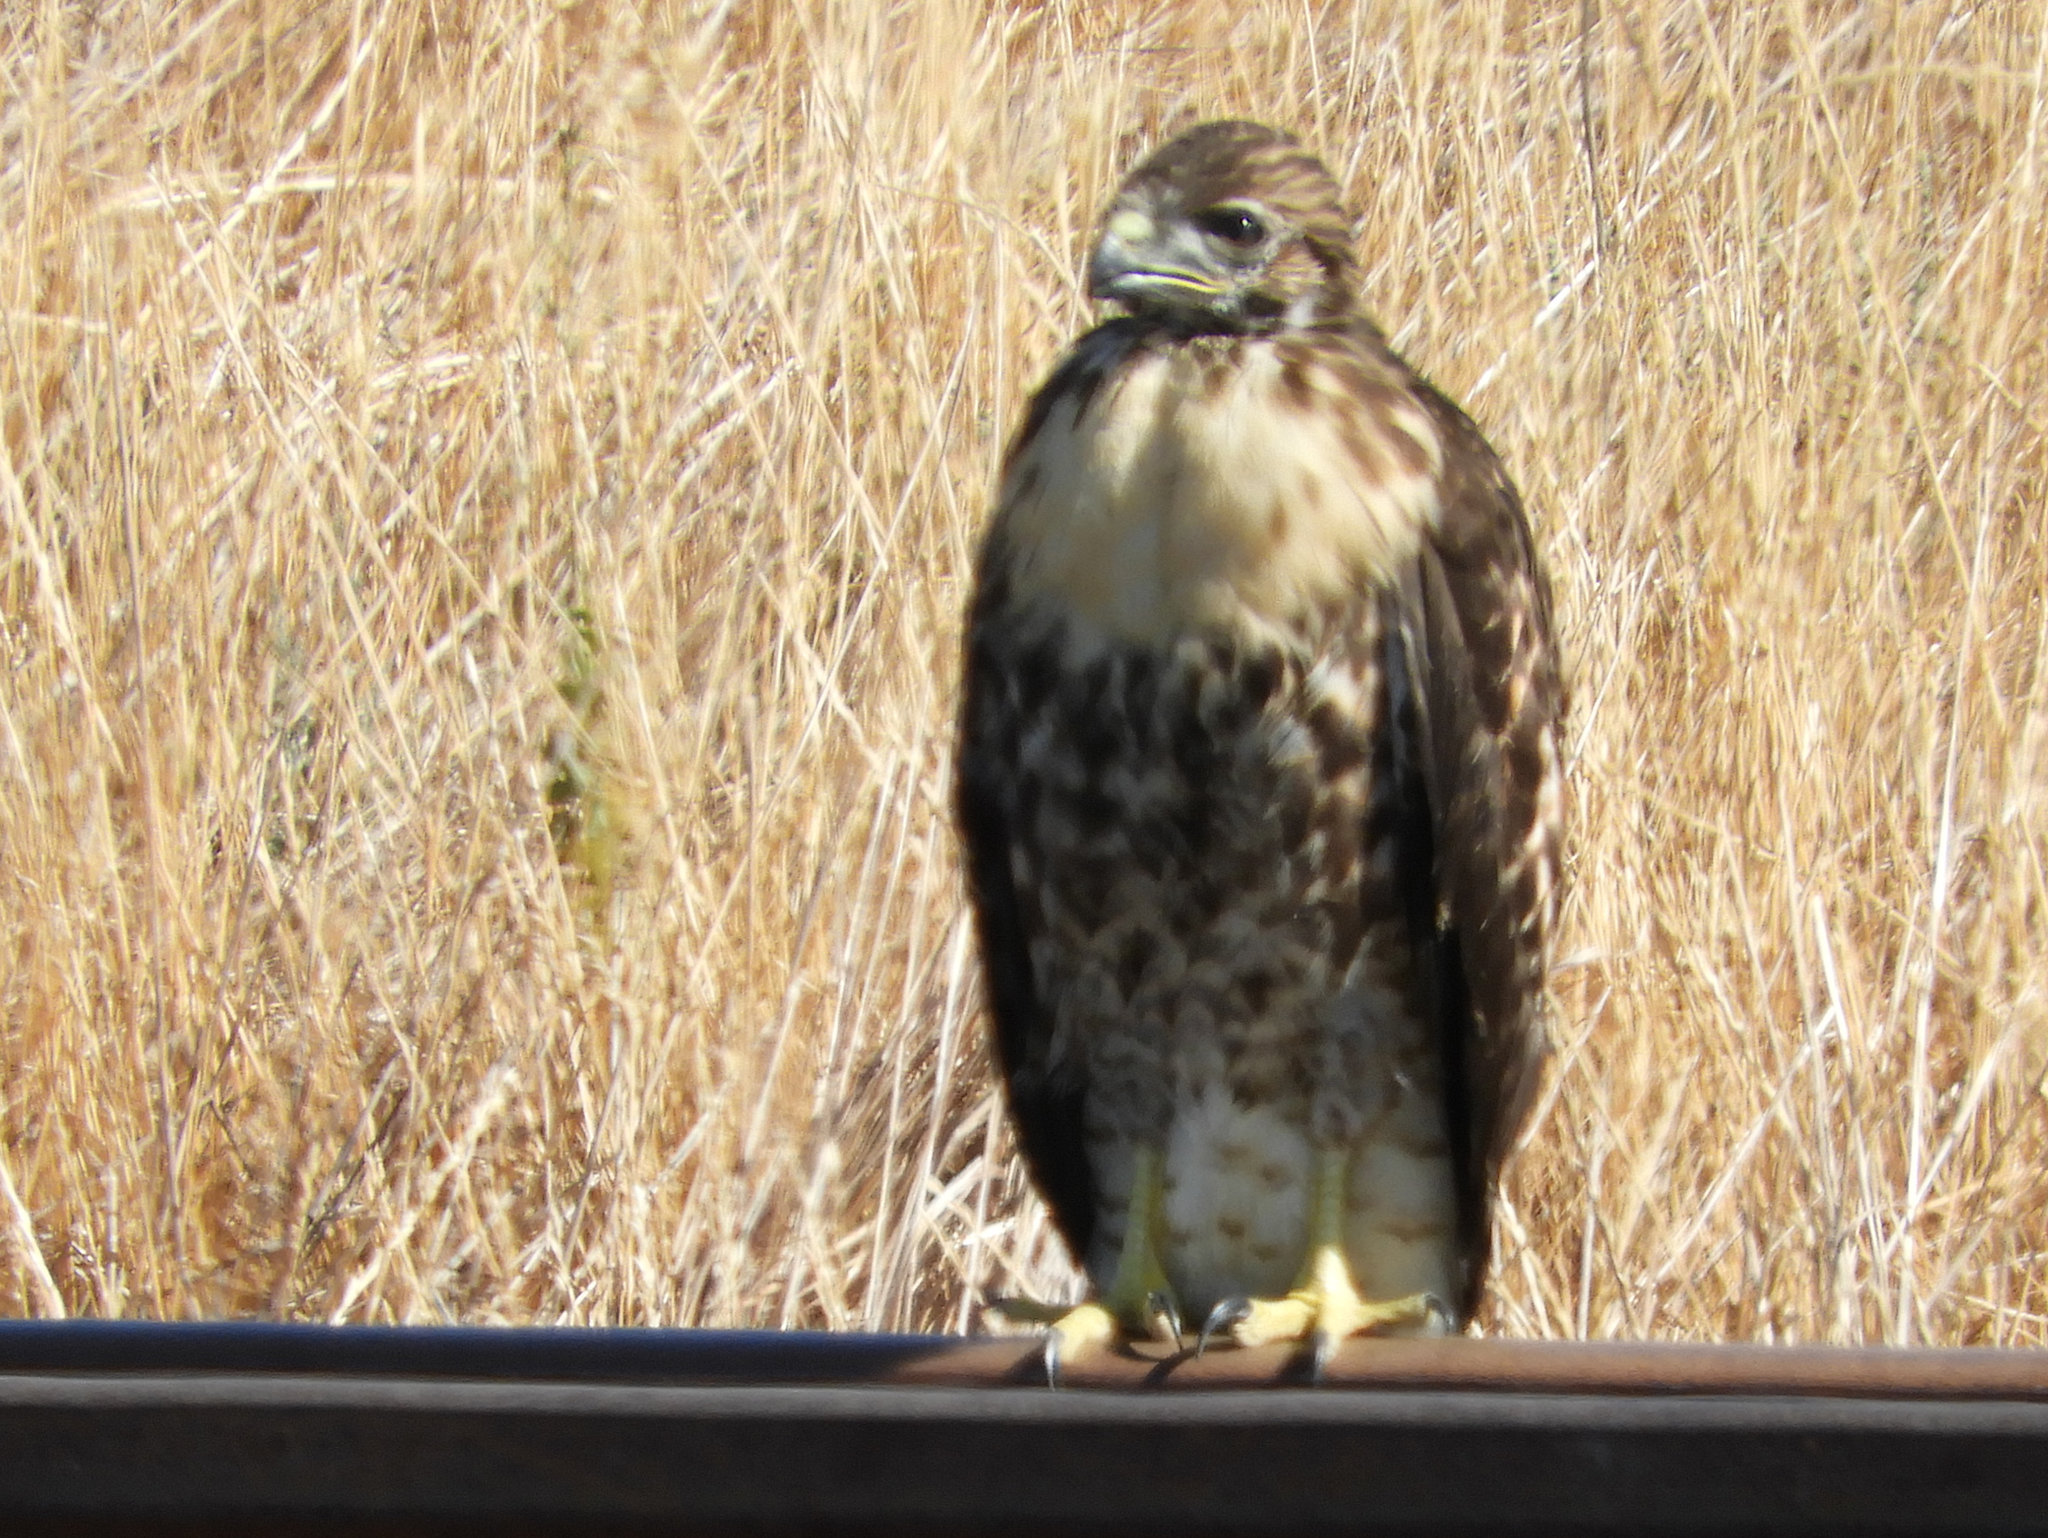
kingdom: Animalia
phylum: Chordata
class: Aves
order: Accipitriformes
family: Accipitridae
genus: Buteo
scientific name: Buteo jamaicensis
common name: Red-tailed hawk
